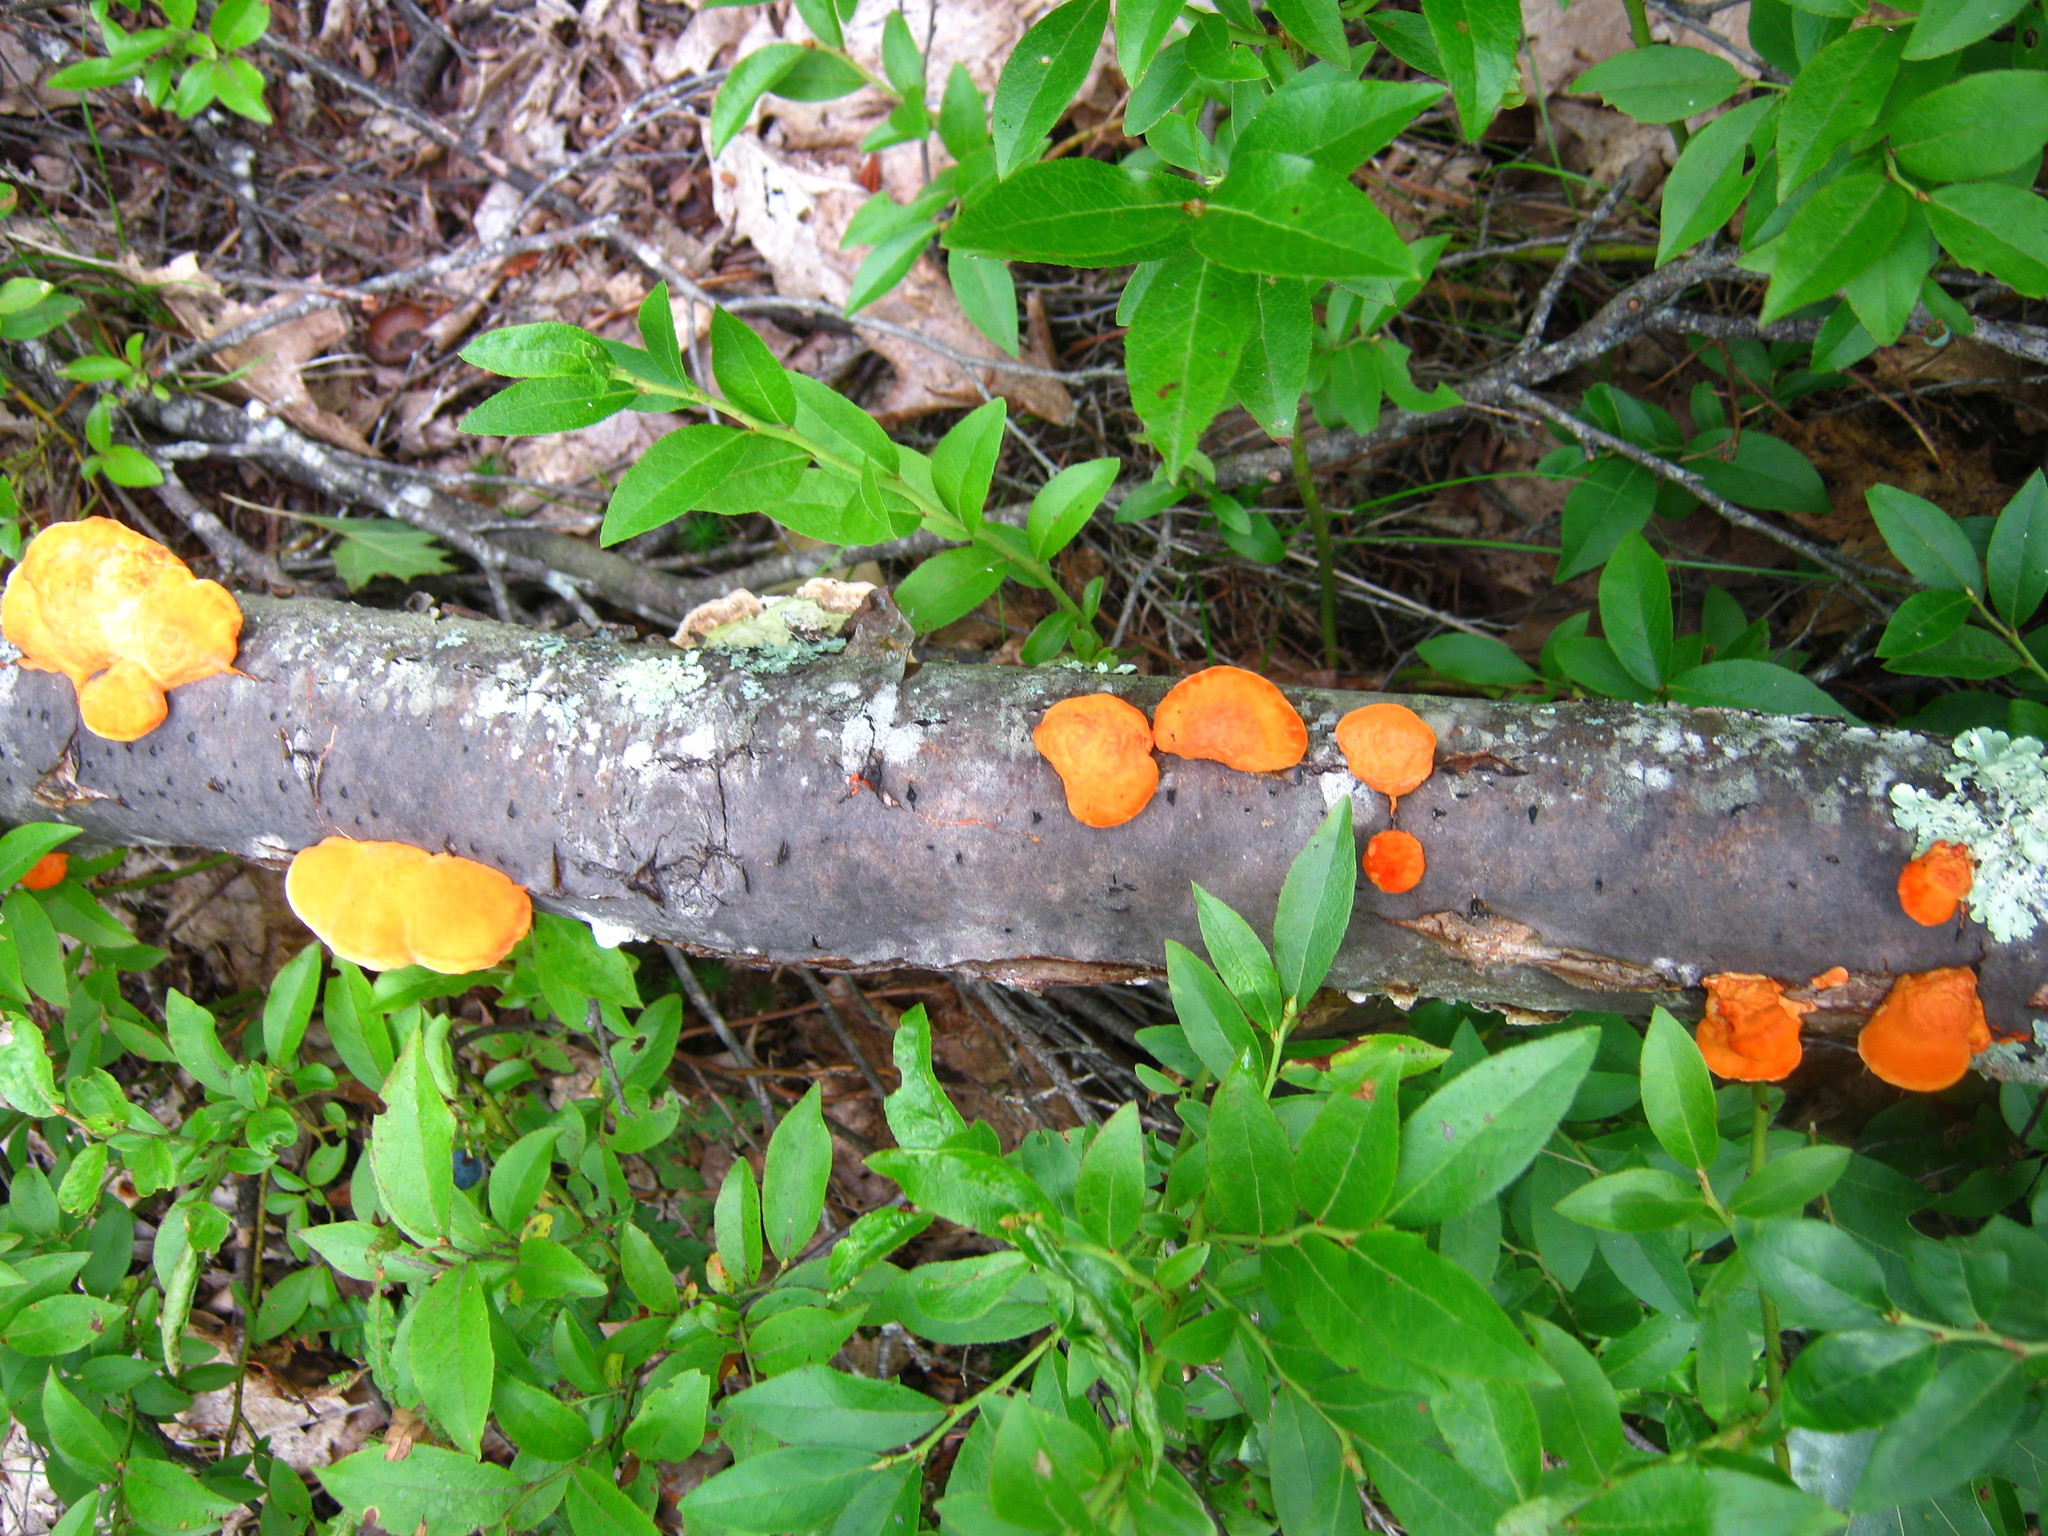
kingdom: Fungi
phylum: Basidiomycota
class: Agaricomycetes
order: Polyporales
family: Polyporaceae
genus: Trametes
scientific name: Trametes cinnabarina
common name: Northern cinnabar polypore
